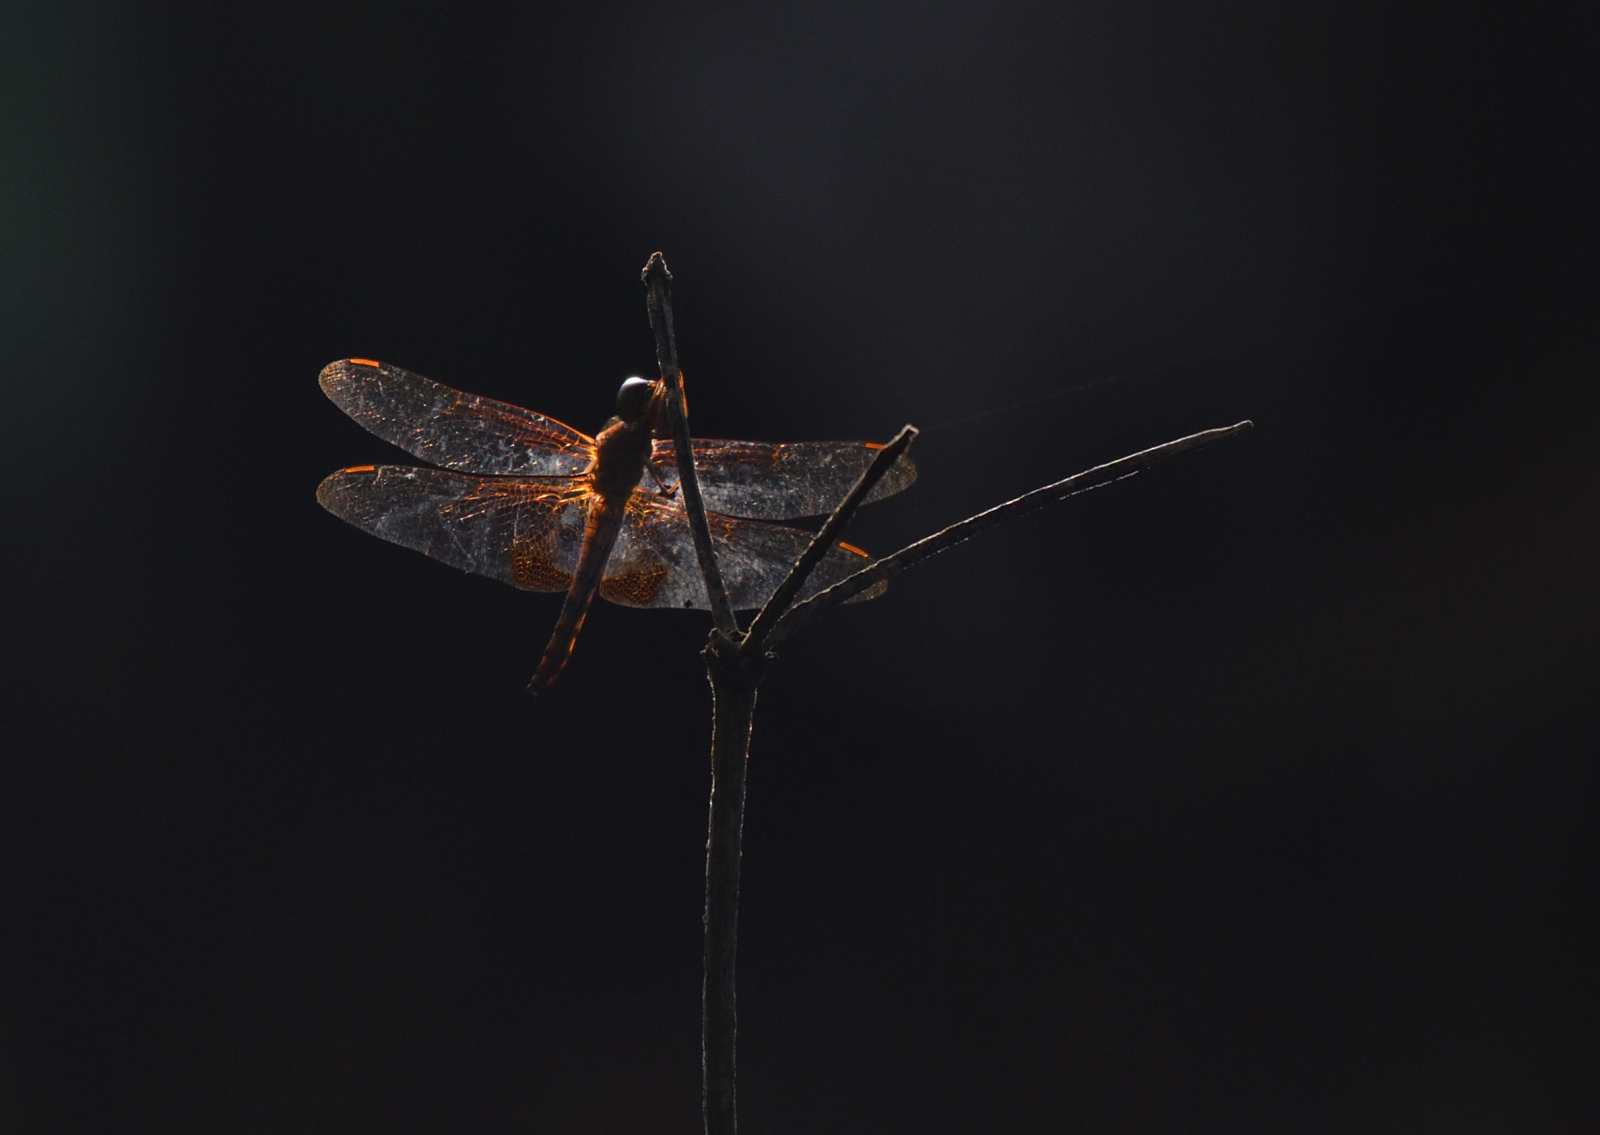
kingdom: Animalia
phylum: Arthropoda
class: Insecta
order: Odonata
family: Libellulidae
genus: Hydrobasileus
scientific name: Hydrobasileus croceus
